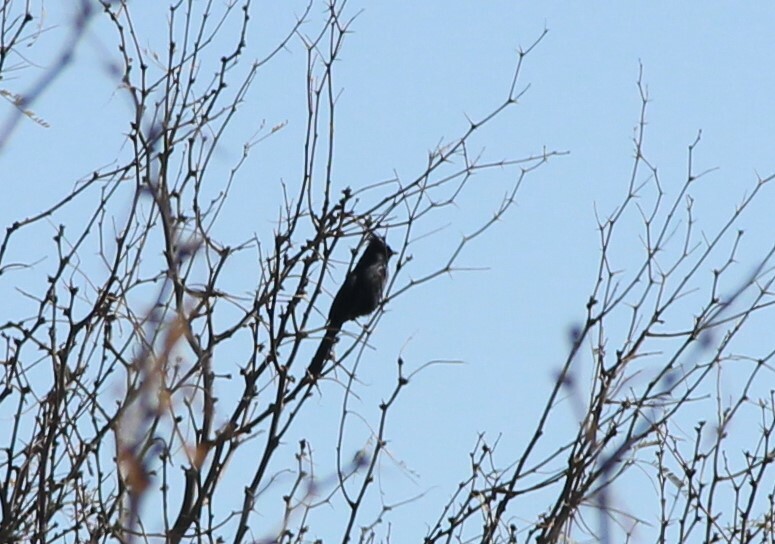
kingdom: Animalia
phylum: Chordata
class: Aves
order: Passeriformes
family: Ptilogonatidae
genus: Phainopepla
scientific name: Phainopepla nitens
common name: Phainopepla
